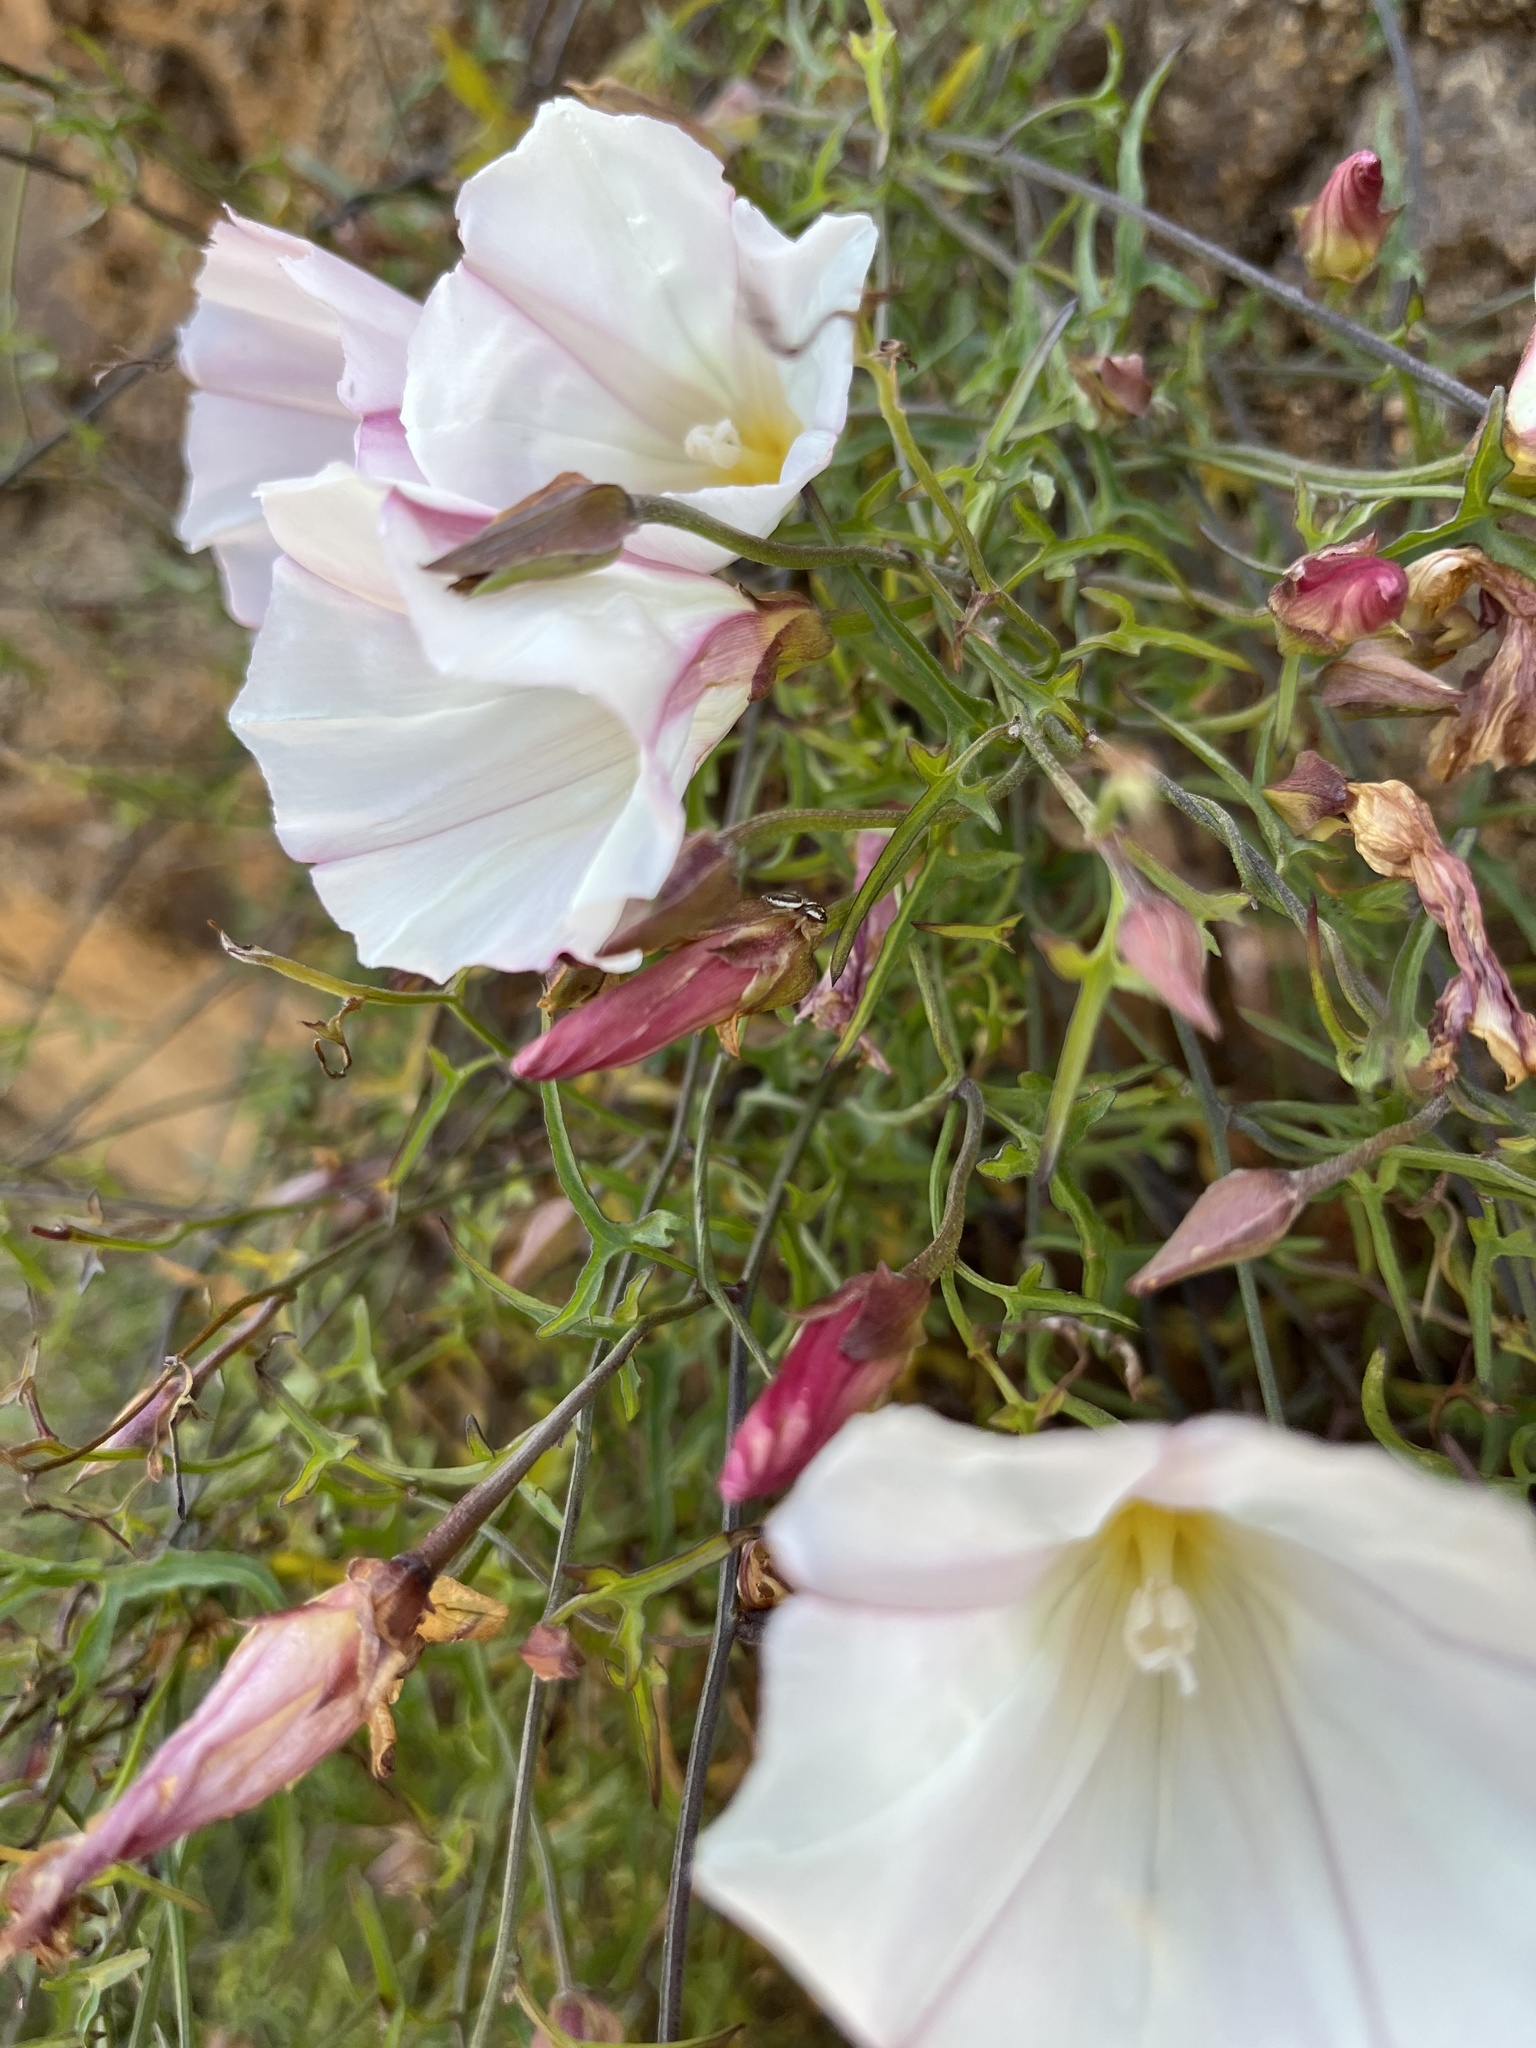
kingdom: Plantae
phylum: Tracheophyta
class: Magnoliopsida
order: Solanales
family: Convolvulaceae
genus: Calystegia
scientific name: Calystegia macrostegia
